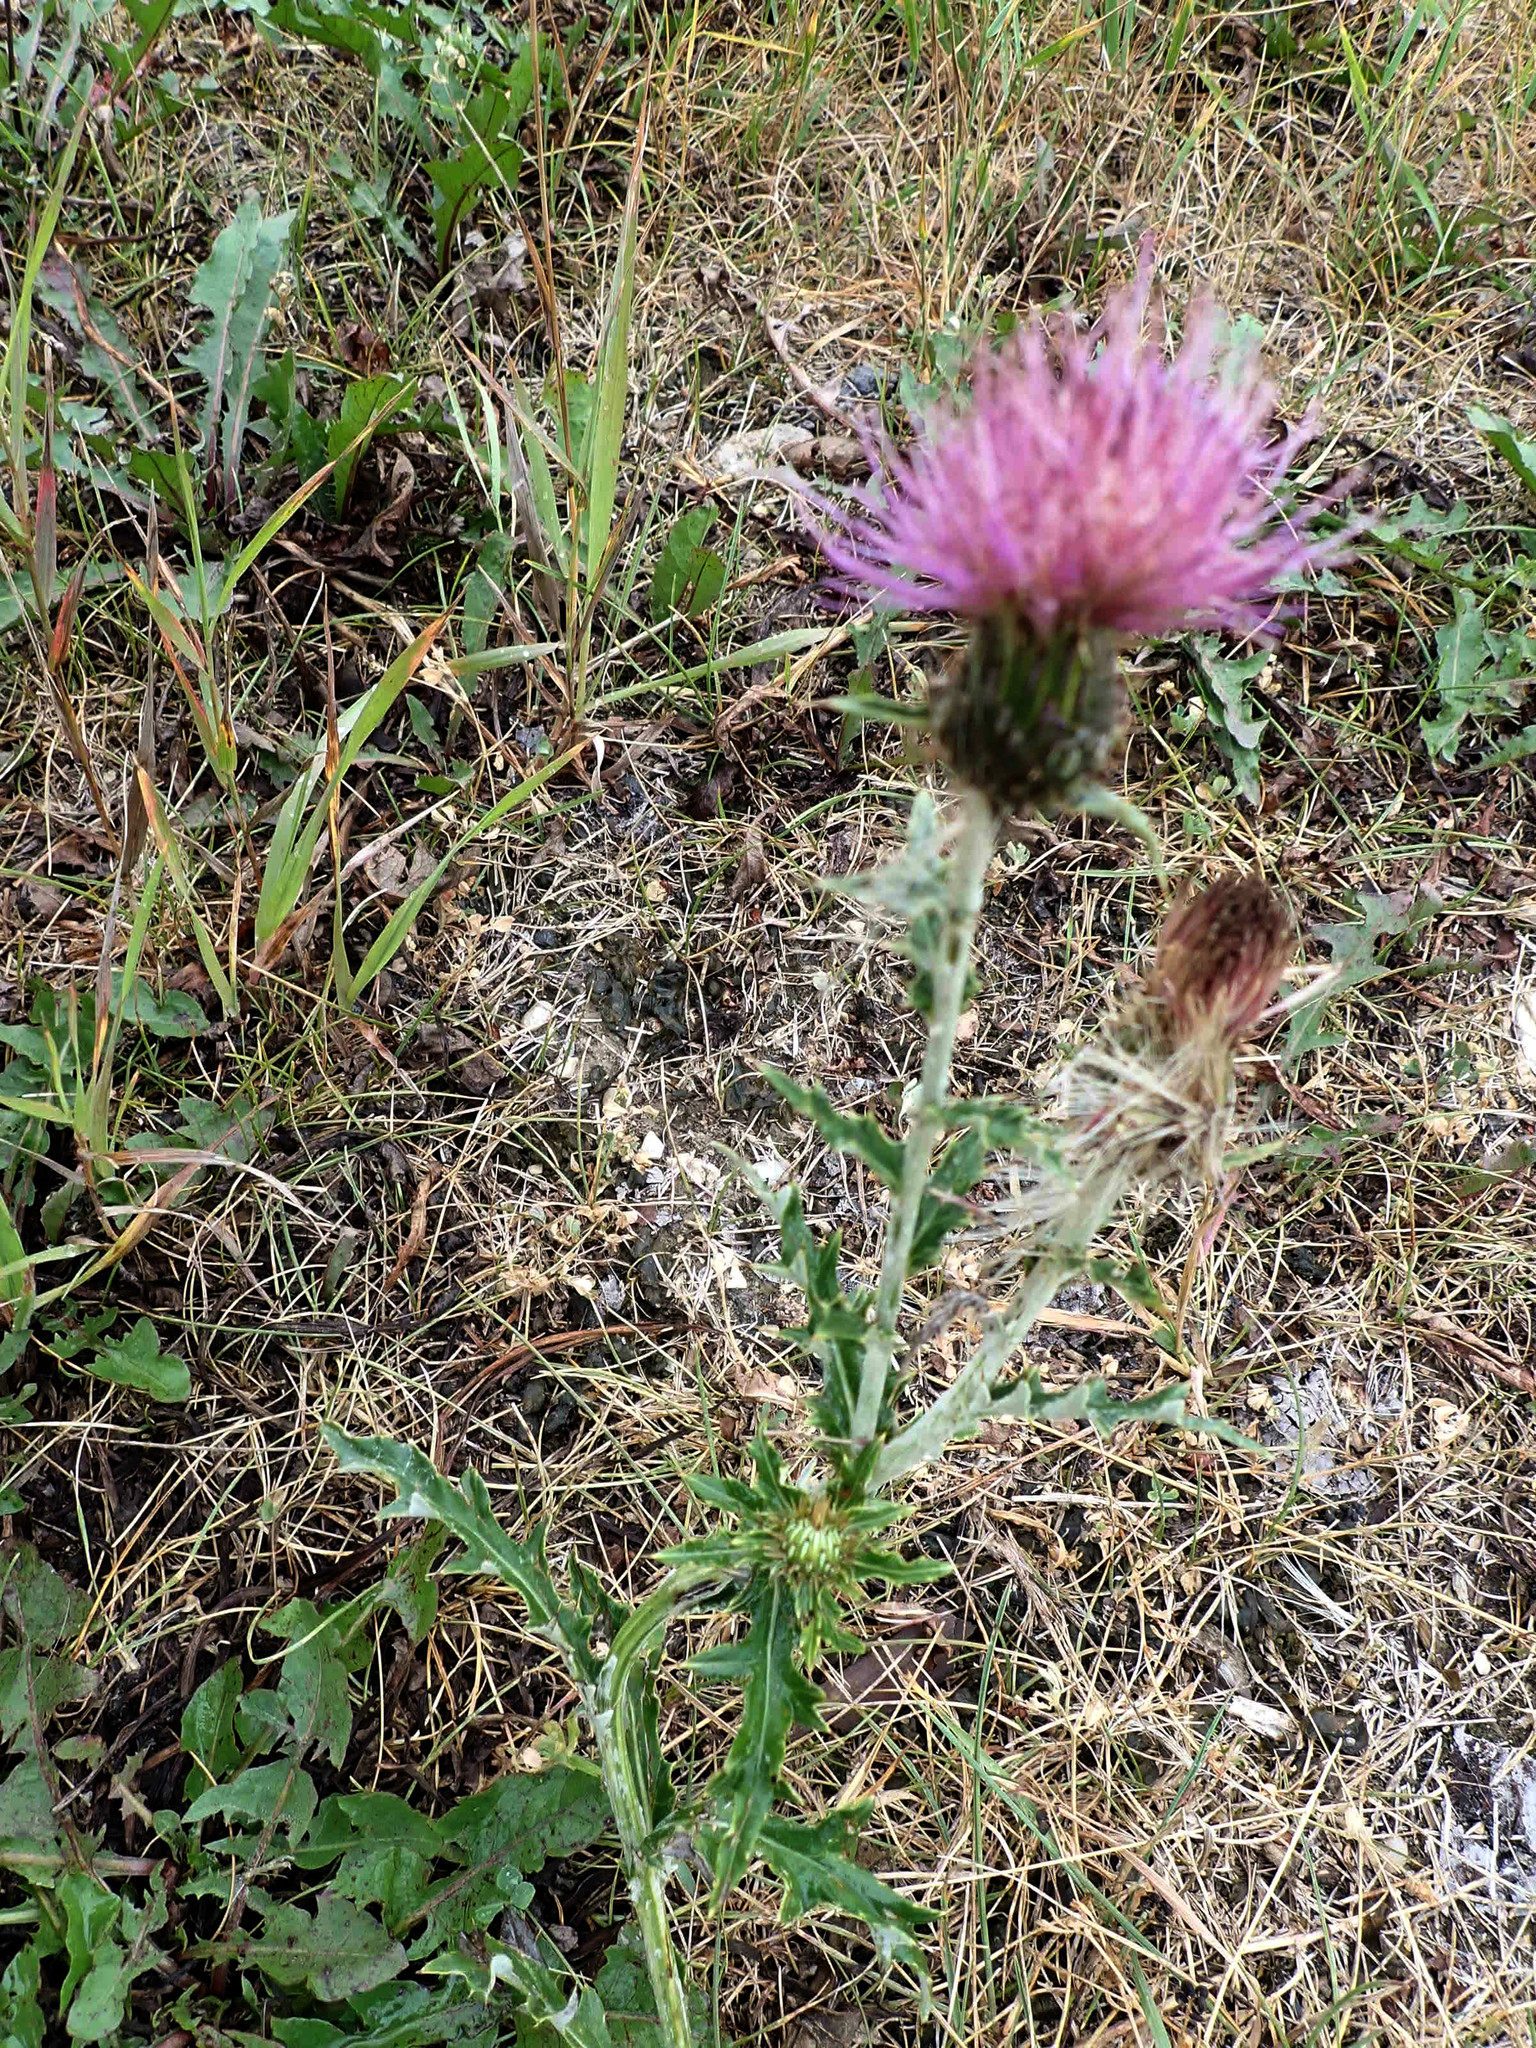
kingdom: Plantae
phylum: Tracheophyta
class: Magnoliopsida
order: Asterales
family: Asteraceae
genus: Cirsium
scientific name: Cirsium flodmanii
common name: Flodman's thistle
